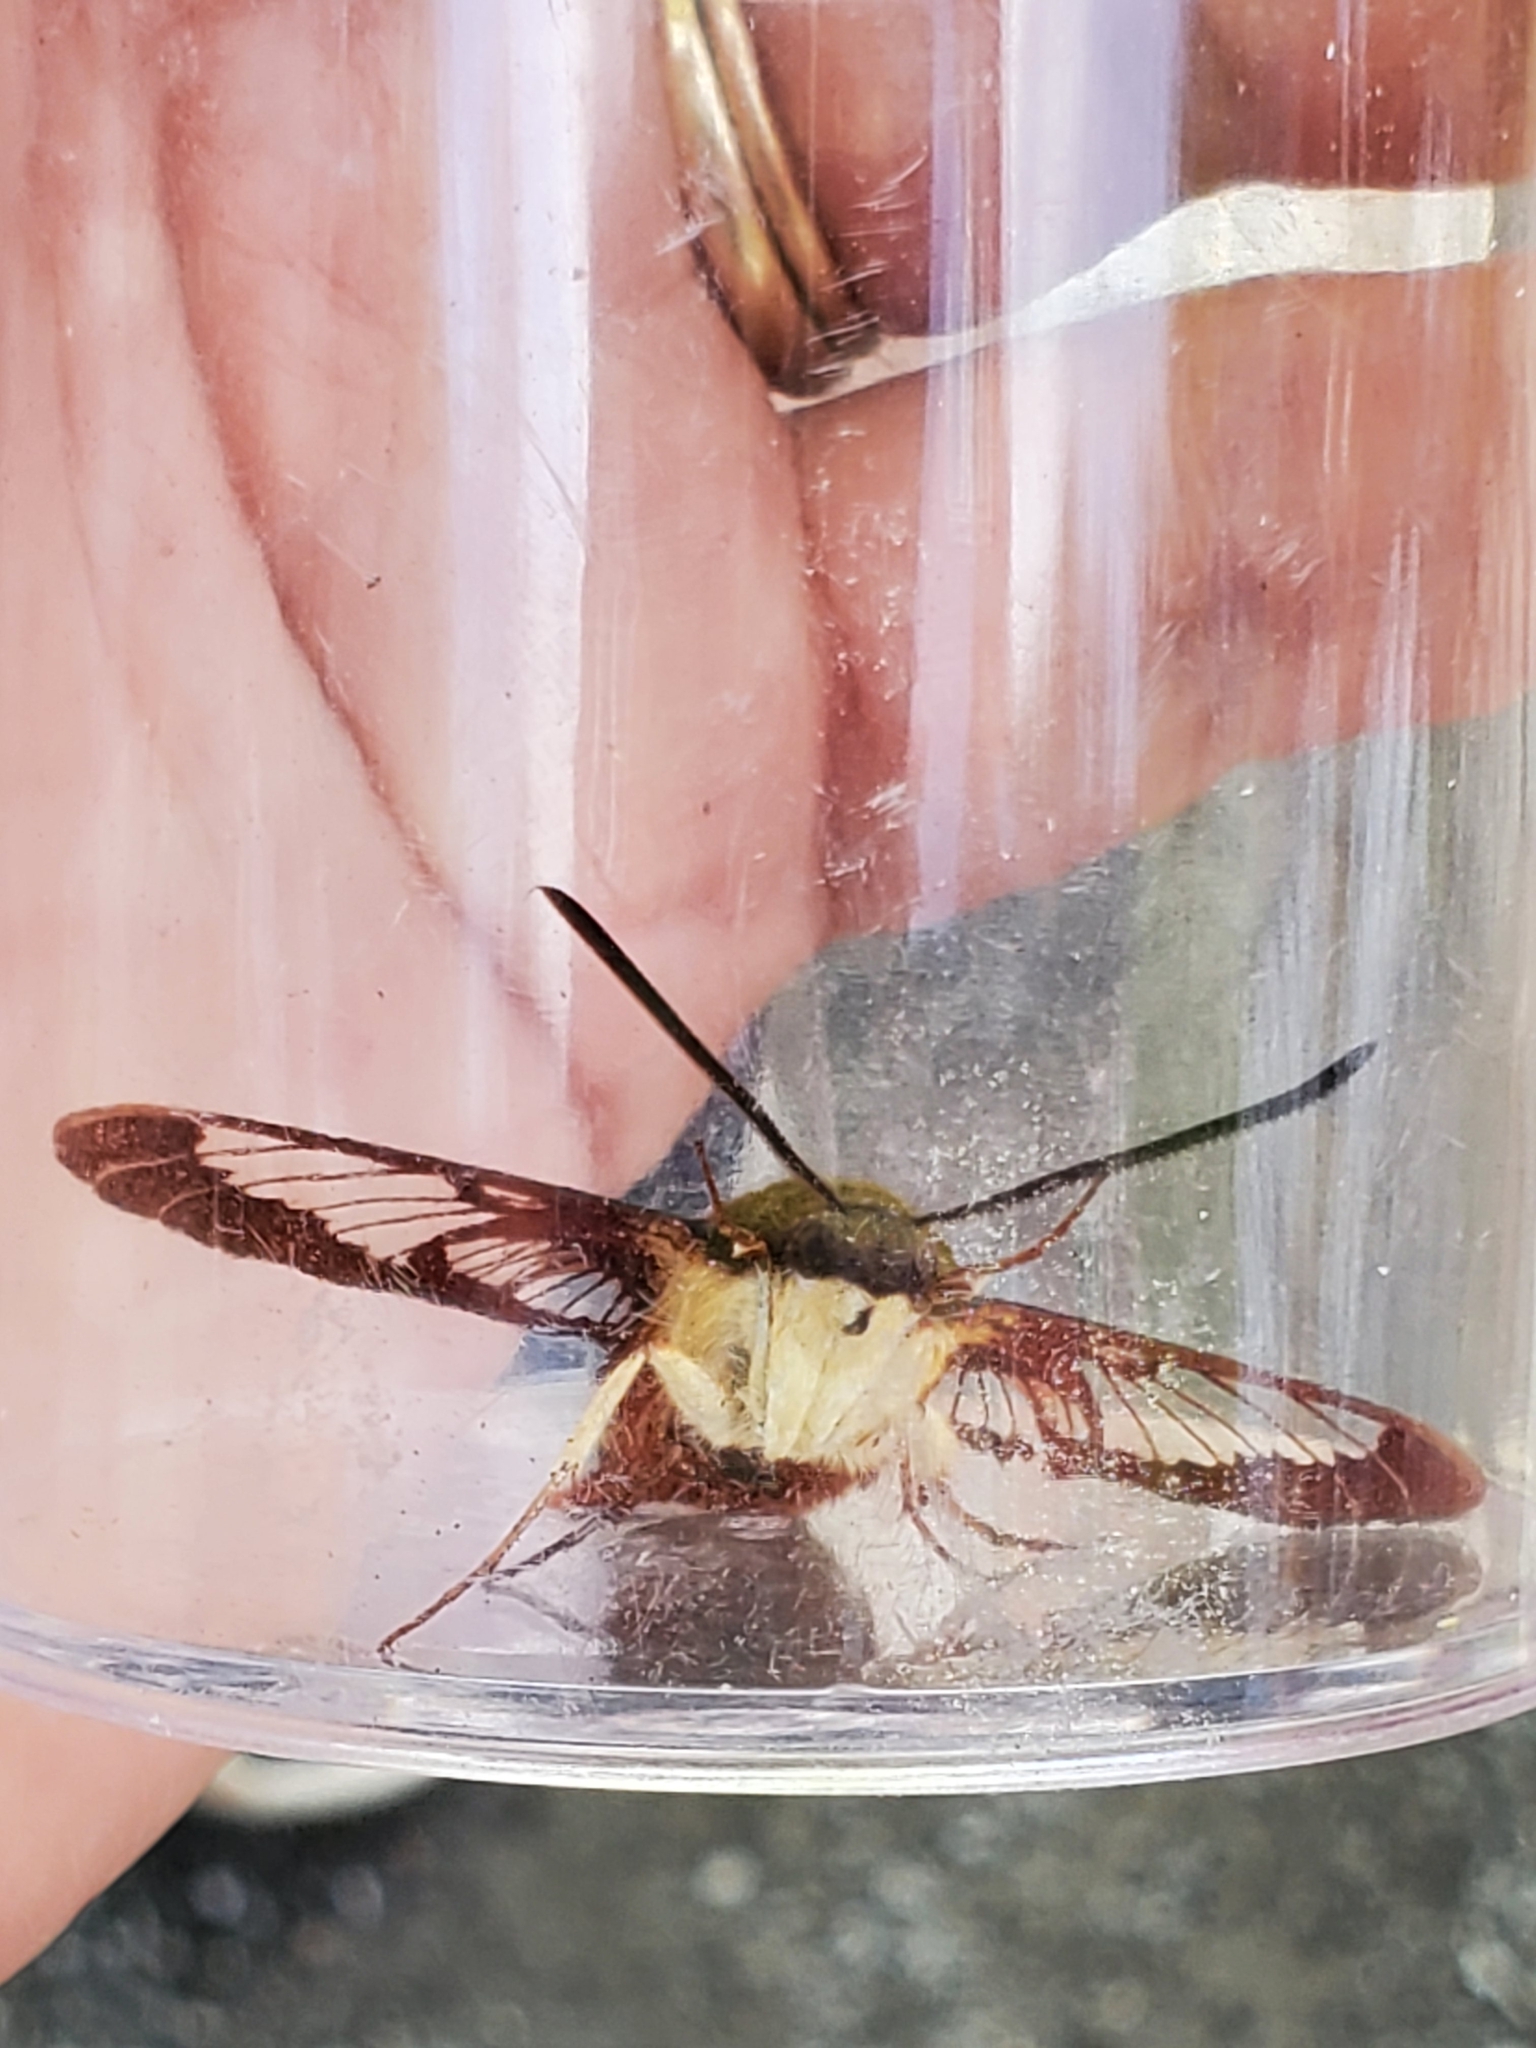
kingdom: Animalia
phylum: Arthropoda
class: Insecta
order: Lepidoptera
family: Sphingidae
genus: Hemaris
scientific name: Hemaris thysbe
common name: Common clear-wing
